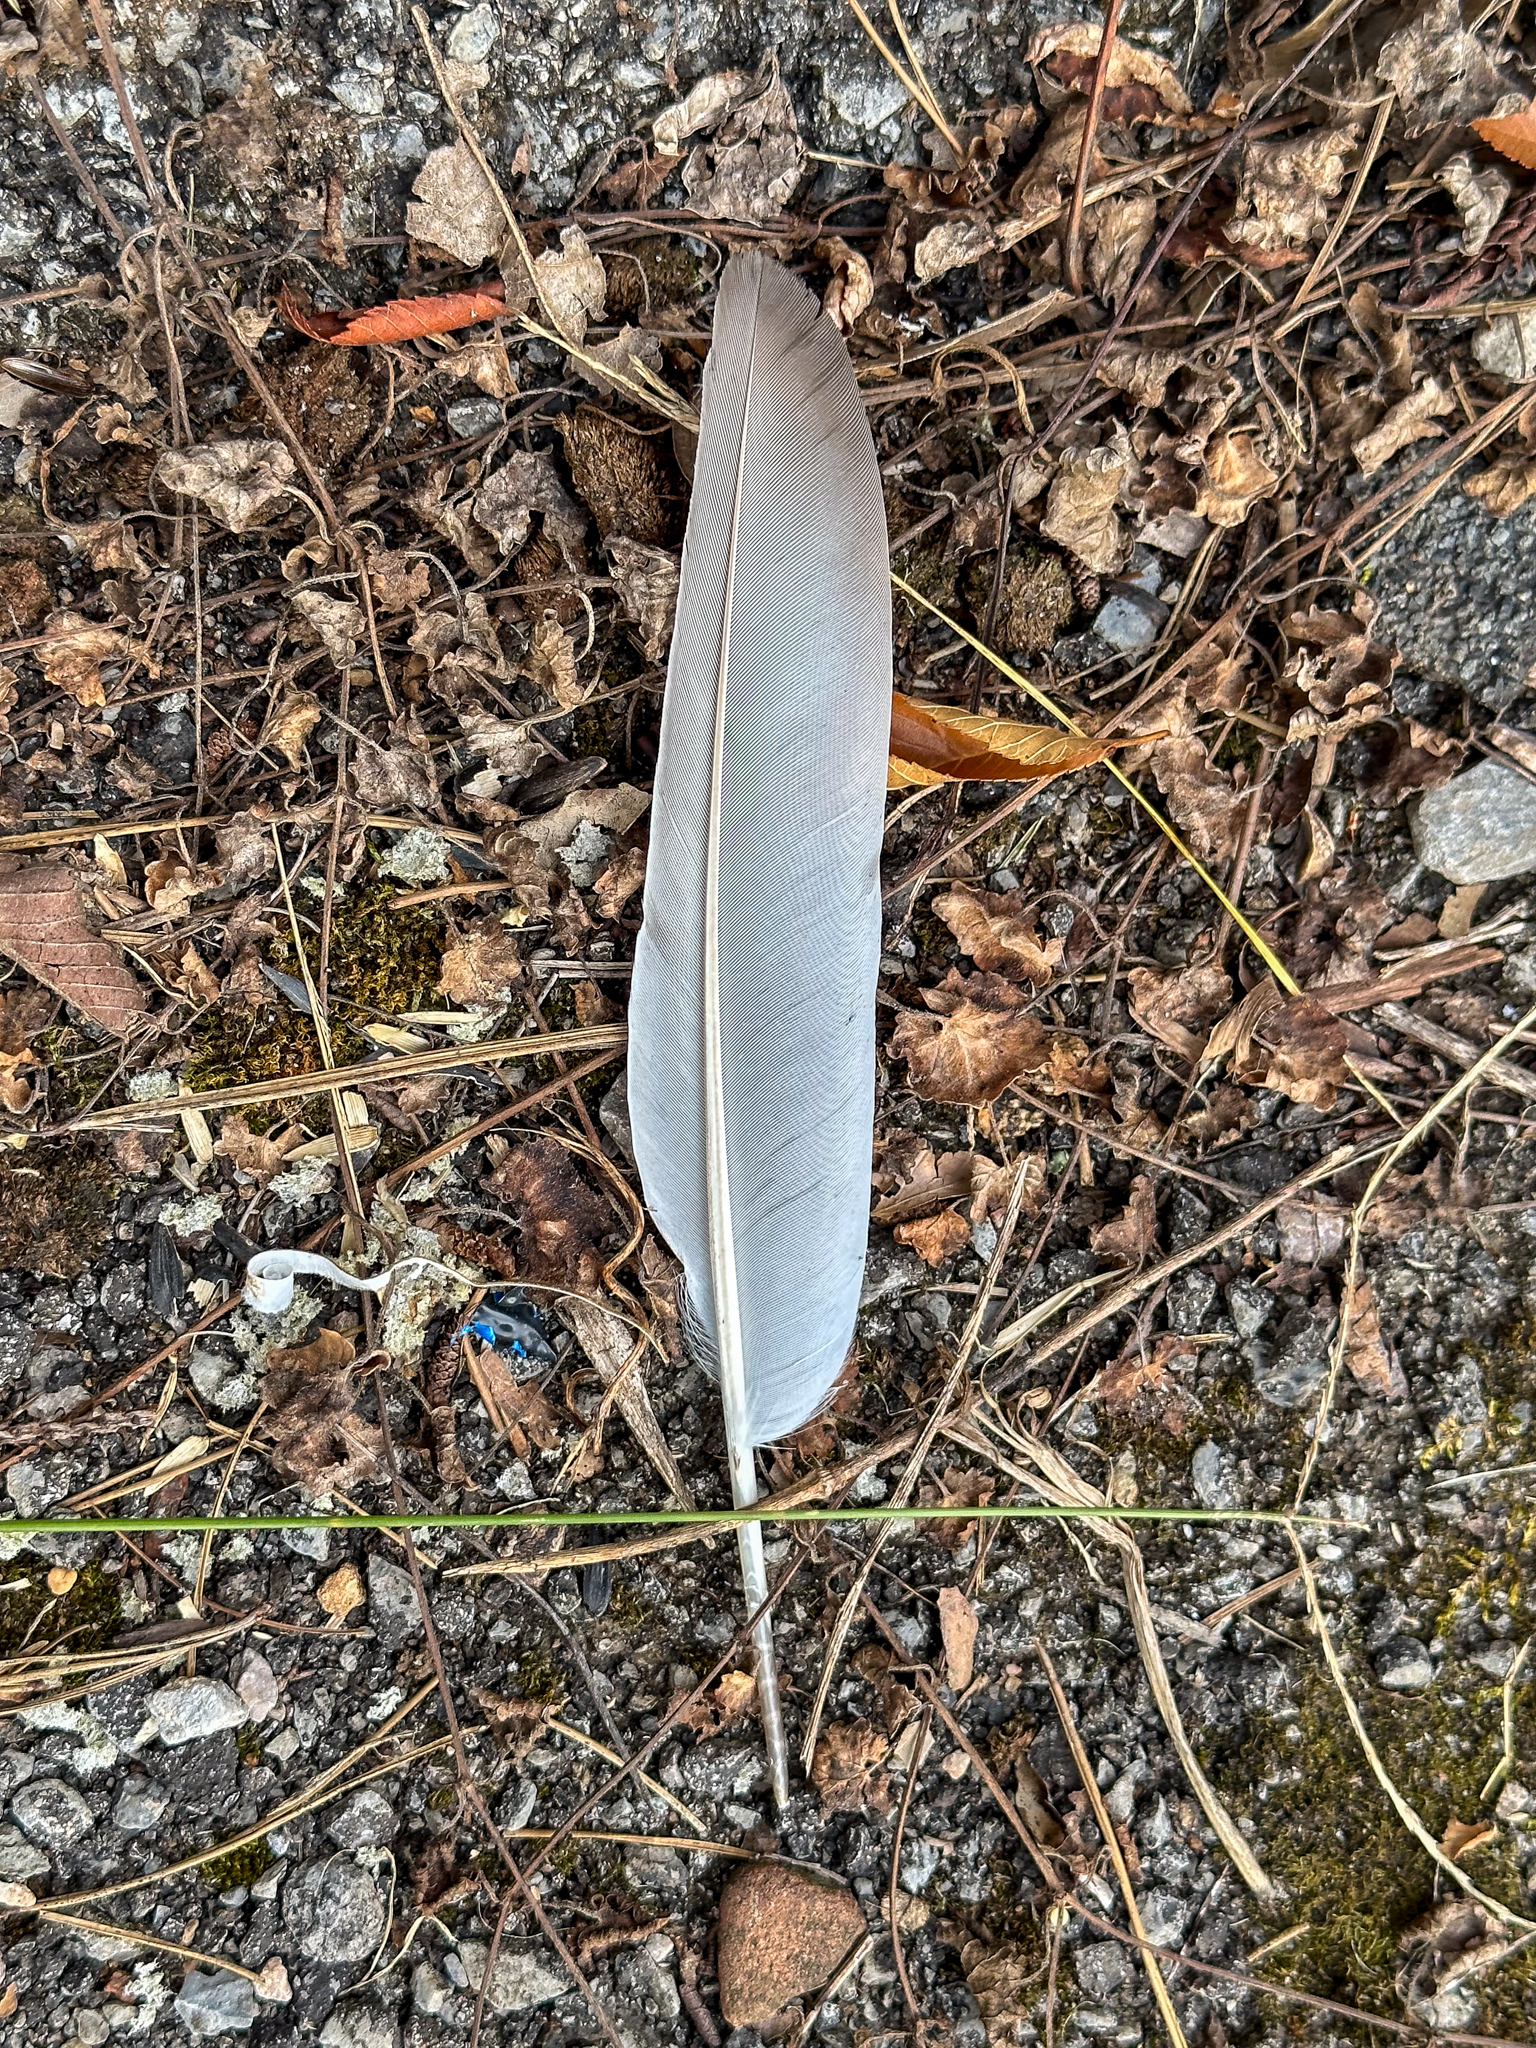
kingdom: Animalia
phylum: Chordata
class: Aves
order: Columbiformes
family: Columbidae
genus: Columba
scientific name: Columba livia
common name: Rock pigeon
